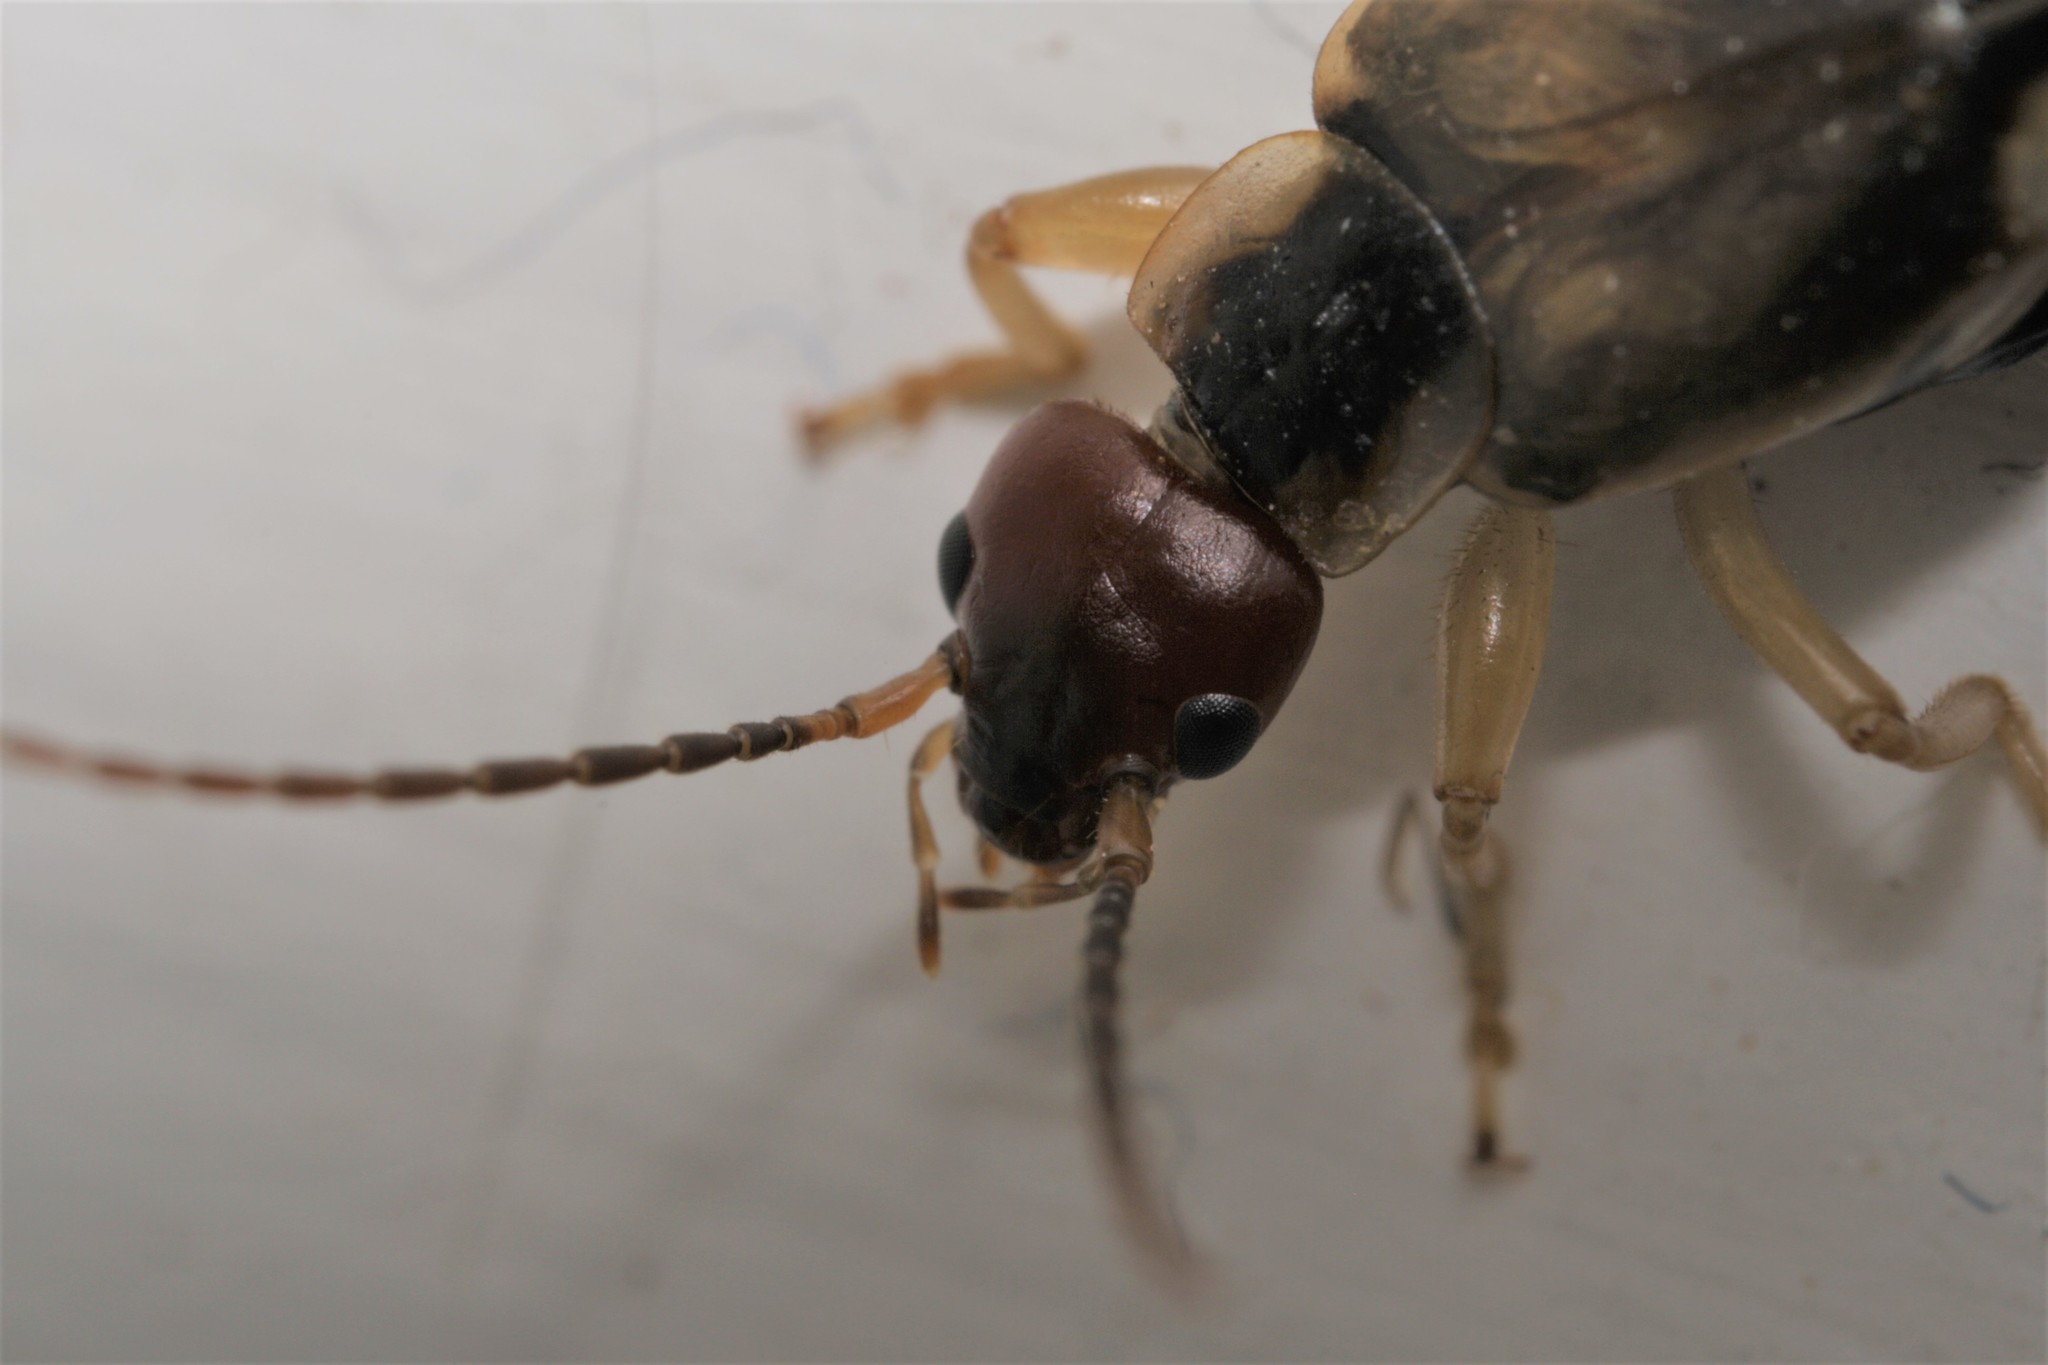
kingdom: Animalia
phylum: Arthropoda
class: Insecta
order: Dermaptera
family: Forficulidae
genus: Forficula
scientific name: Forficula
